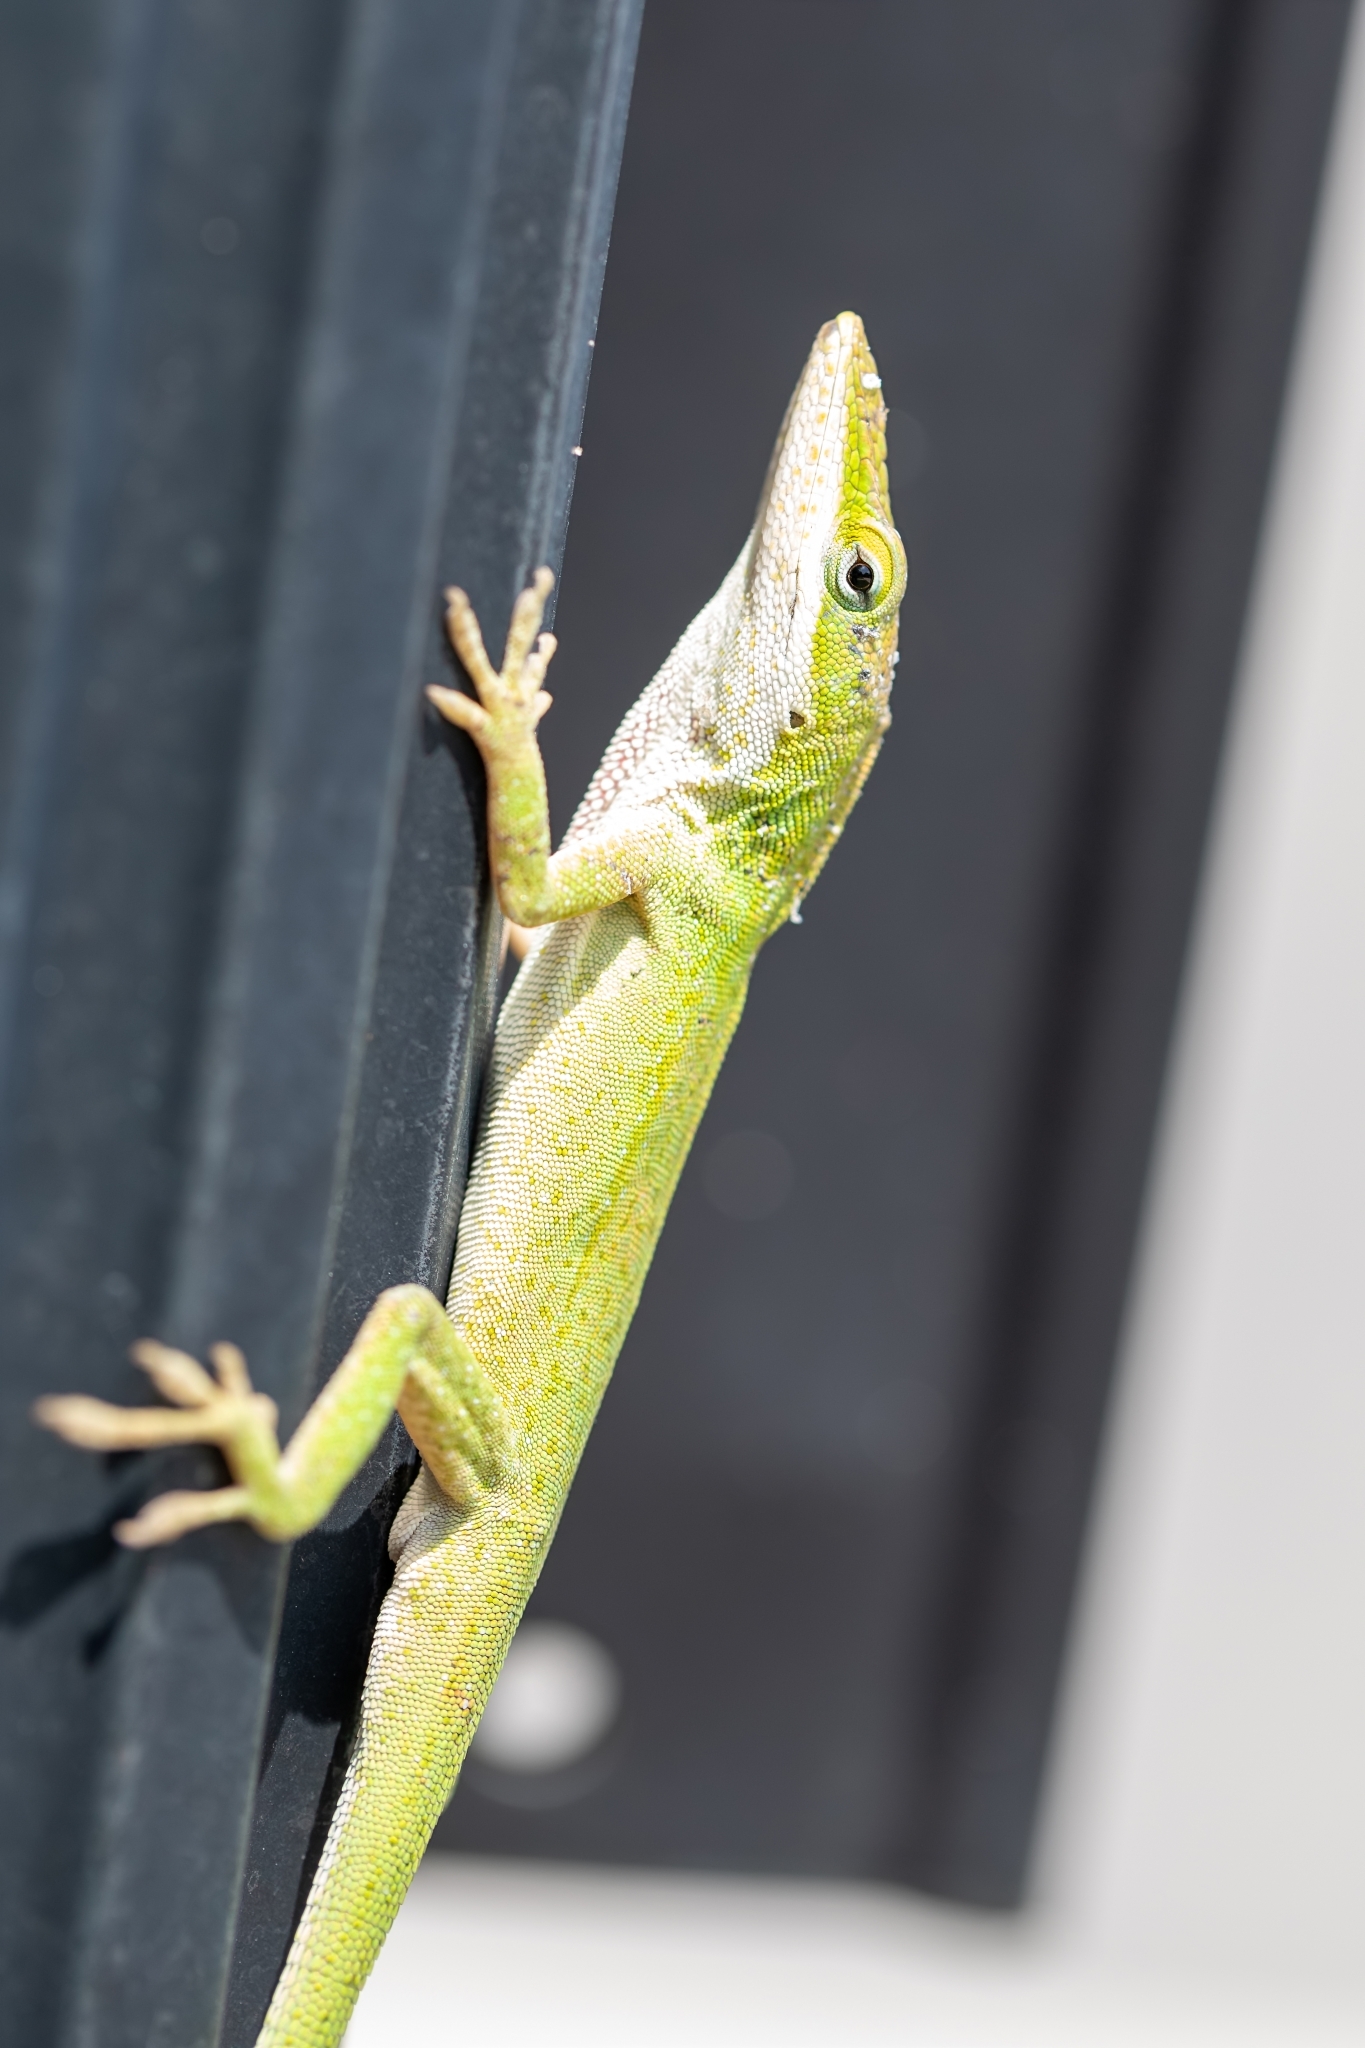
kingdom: Animalia
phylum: Chordata
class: Squamata
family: Dactyloidae
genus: Anolis
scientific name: Anolis carolinensis
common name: Green anole
